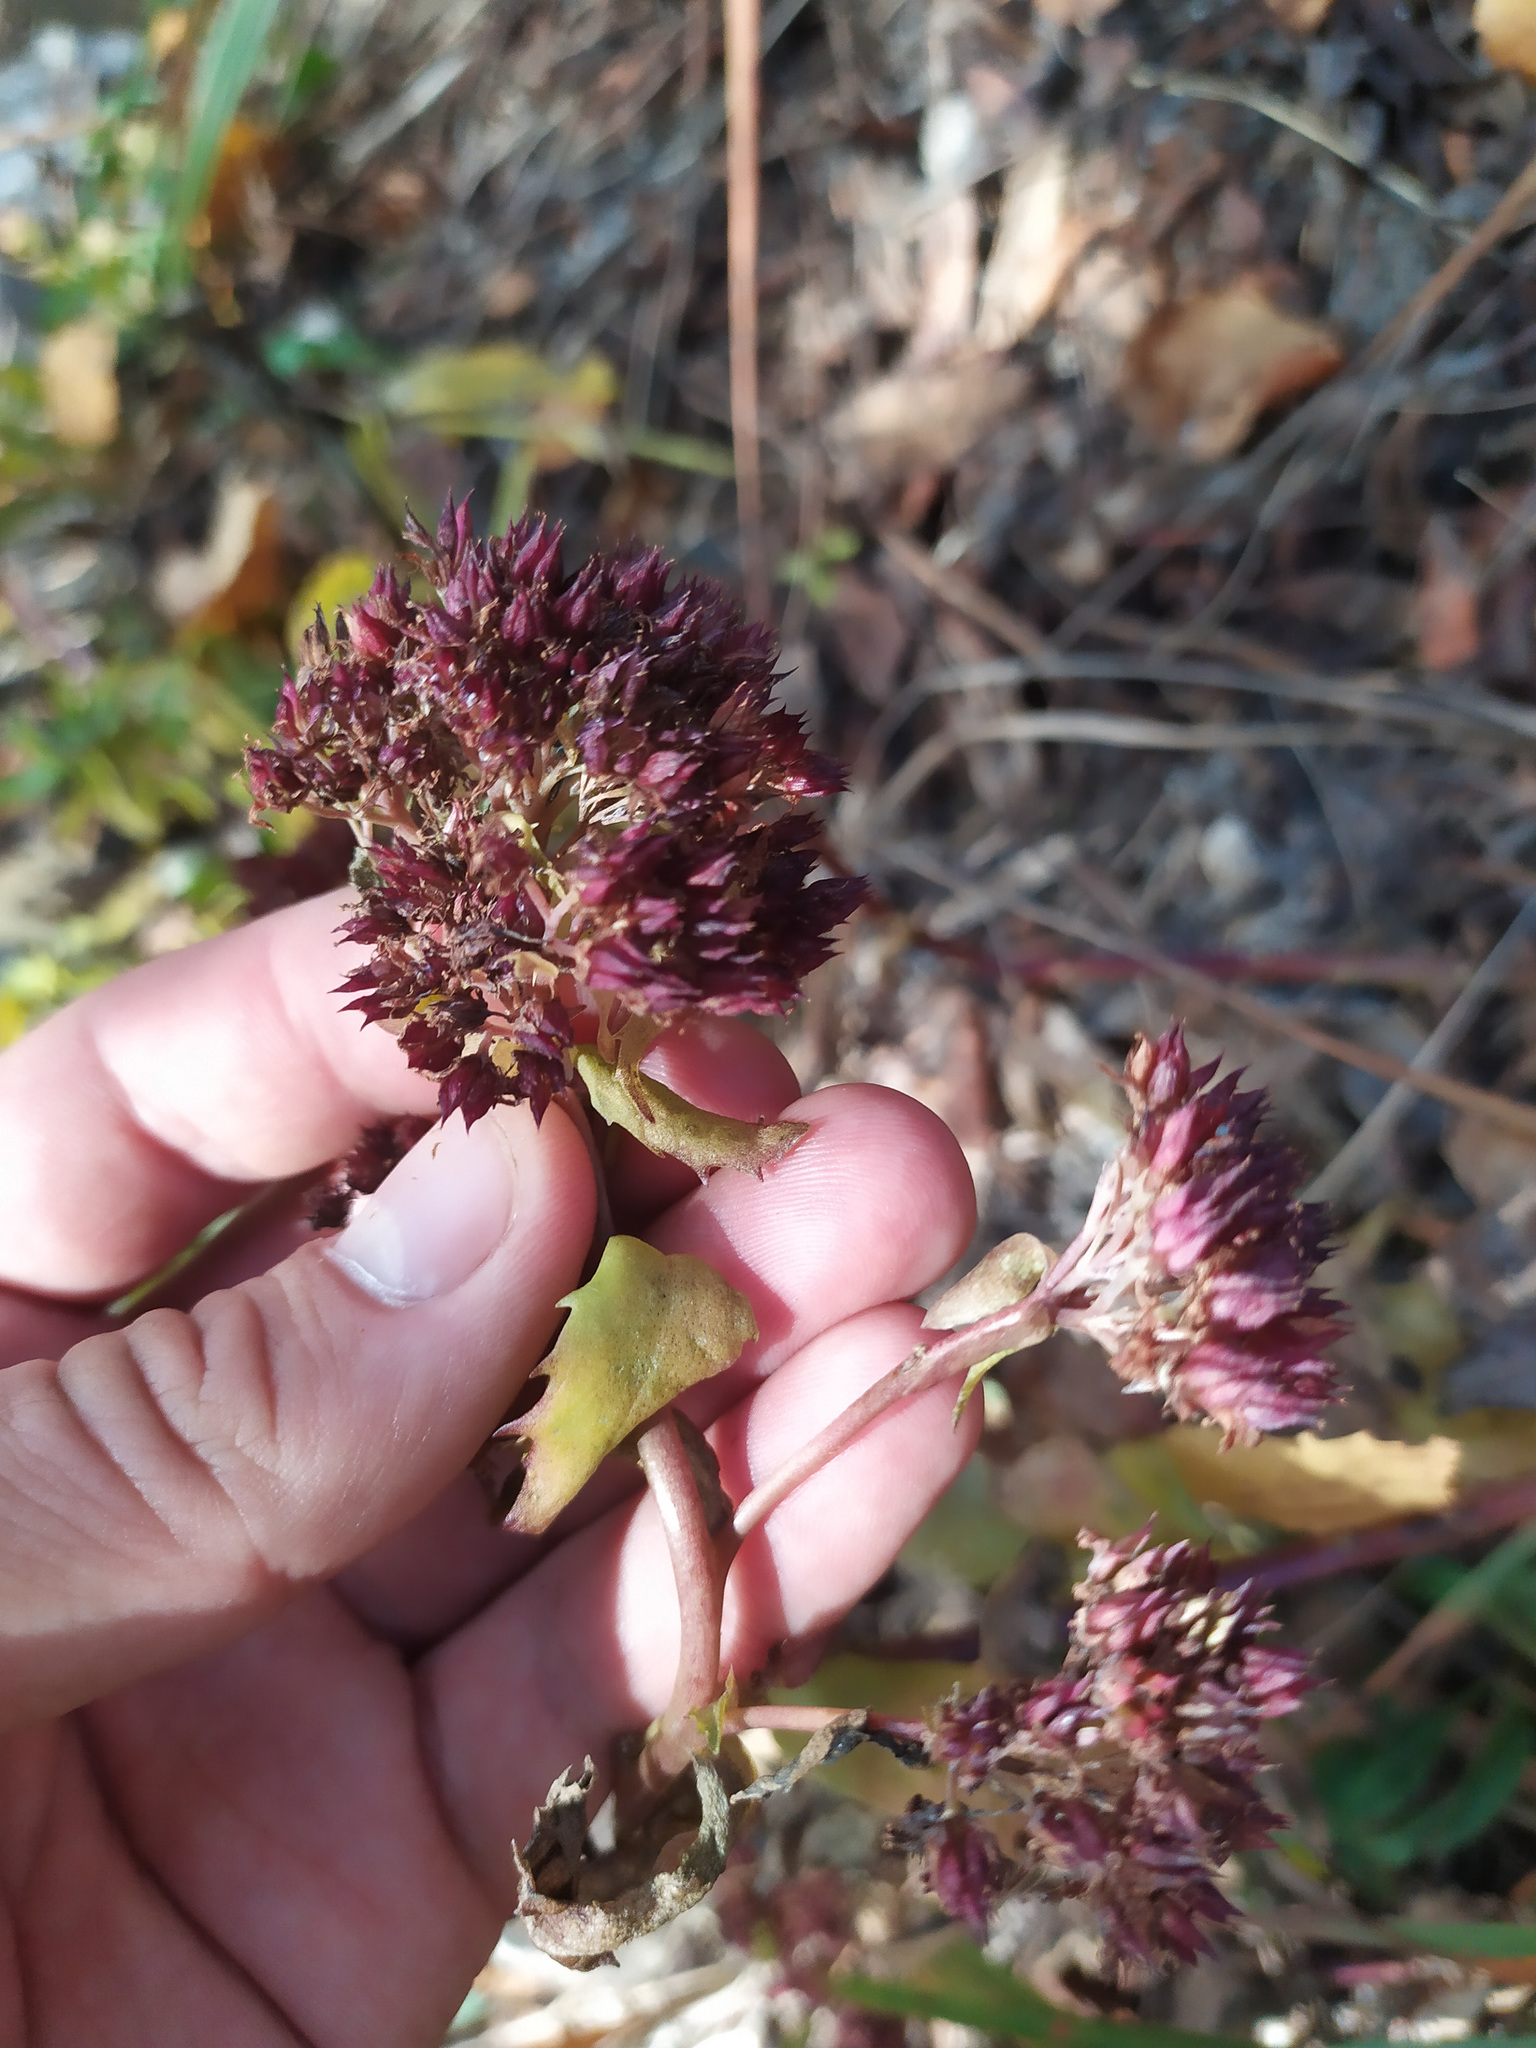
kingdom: Plantae
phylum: Tracheophyta
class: Magnoliopsida
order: Saxifragales
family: Crassulaceae
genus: Hylotelephium
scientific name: Hylotelephium telephium
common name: Live-forever
